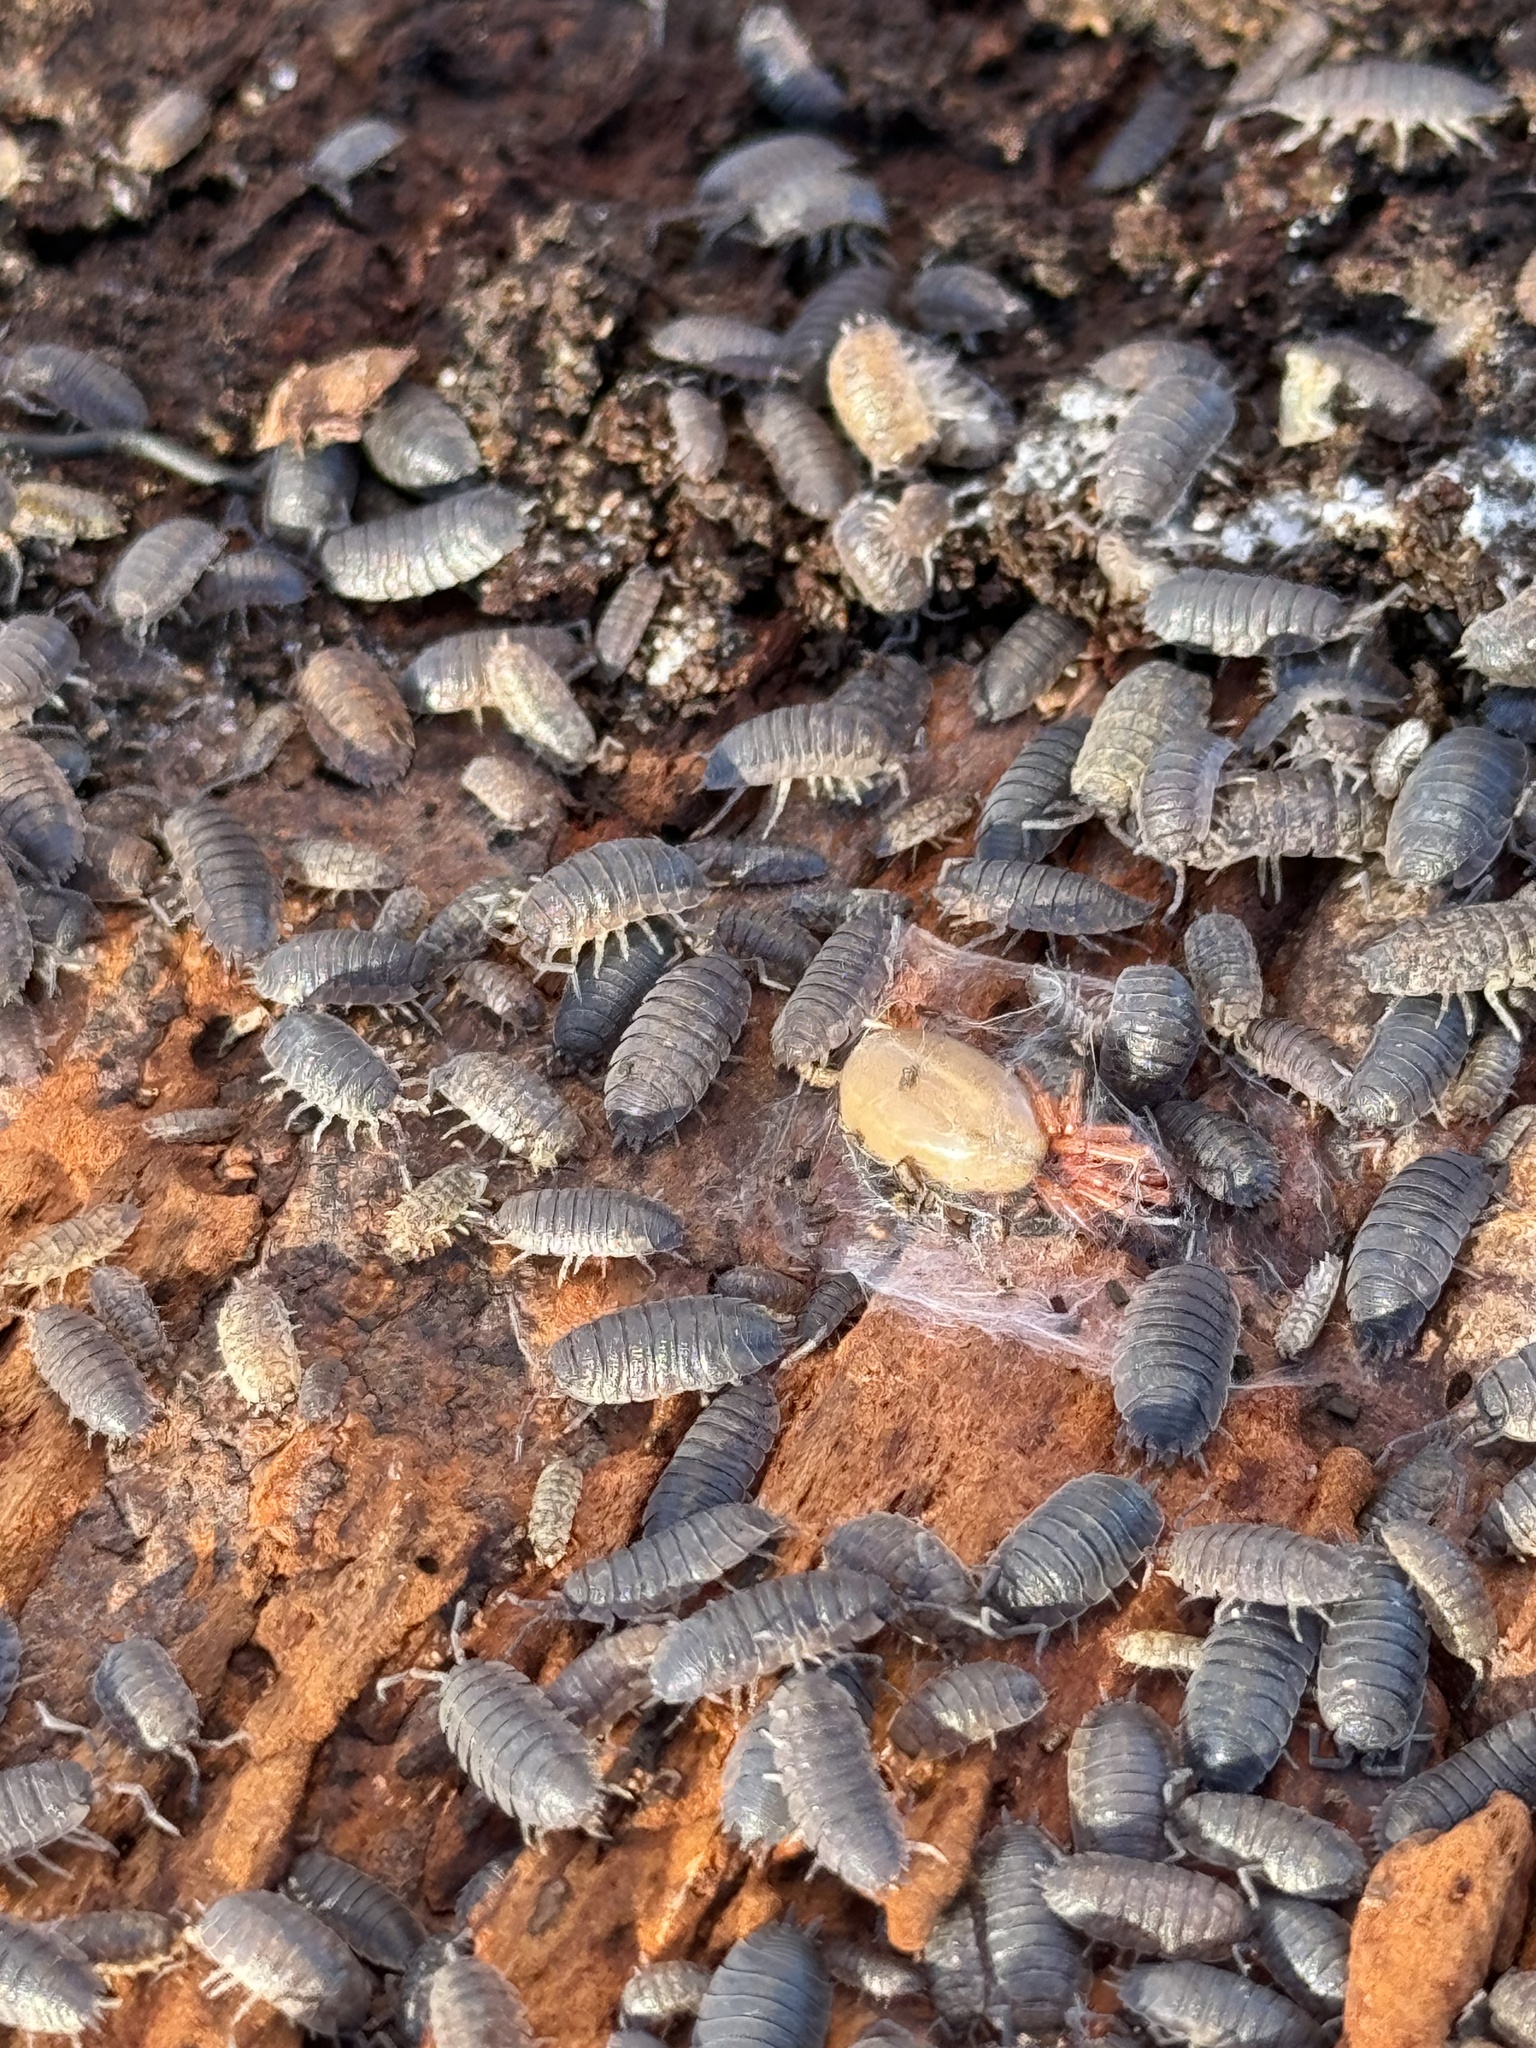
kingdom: Animalia
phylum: Arthropoda
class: Arachnida
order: Araneae
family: Dysderidae
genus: Dysdera
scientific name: Dysdera crocata
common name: Woodlouse spider
